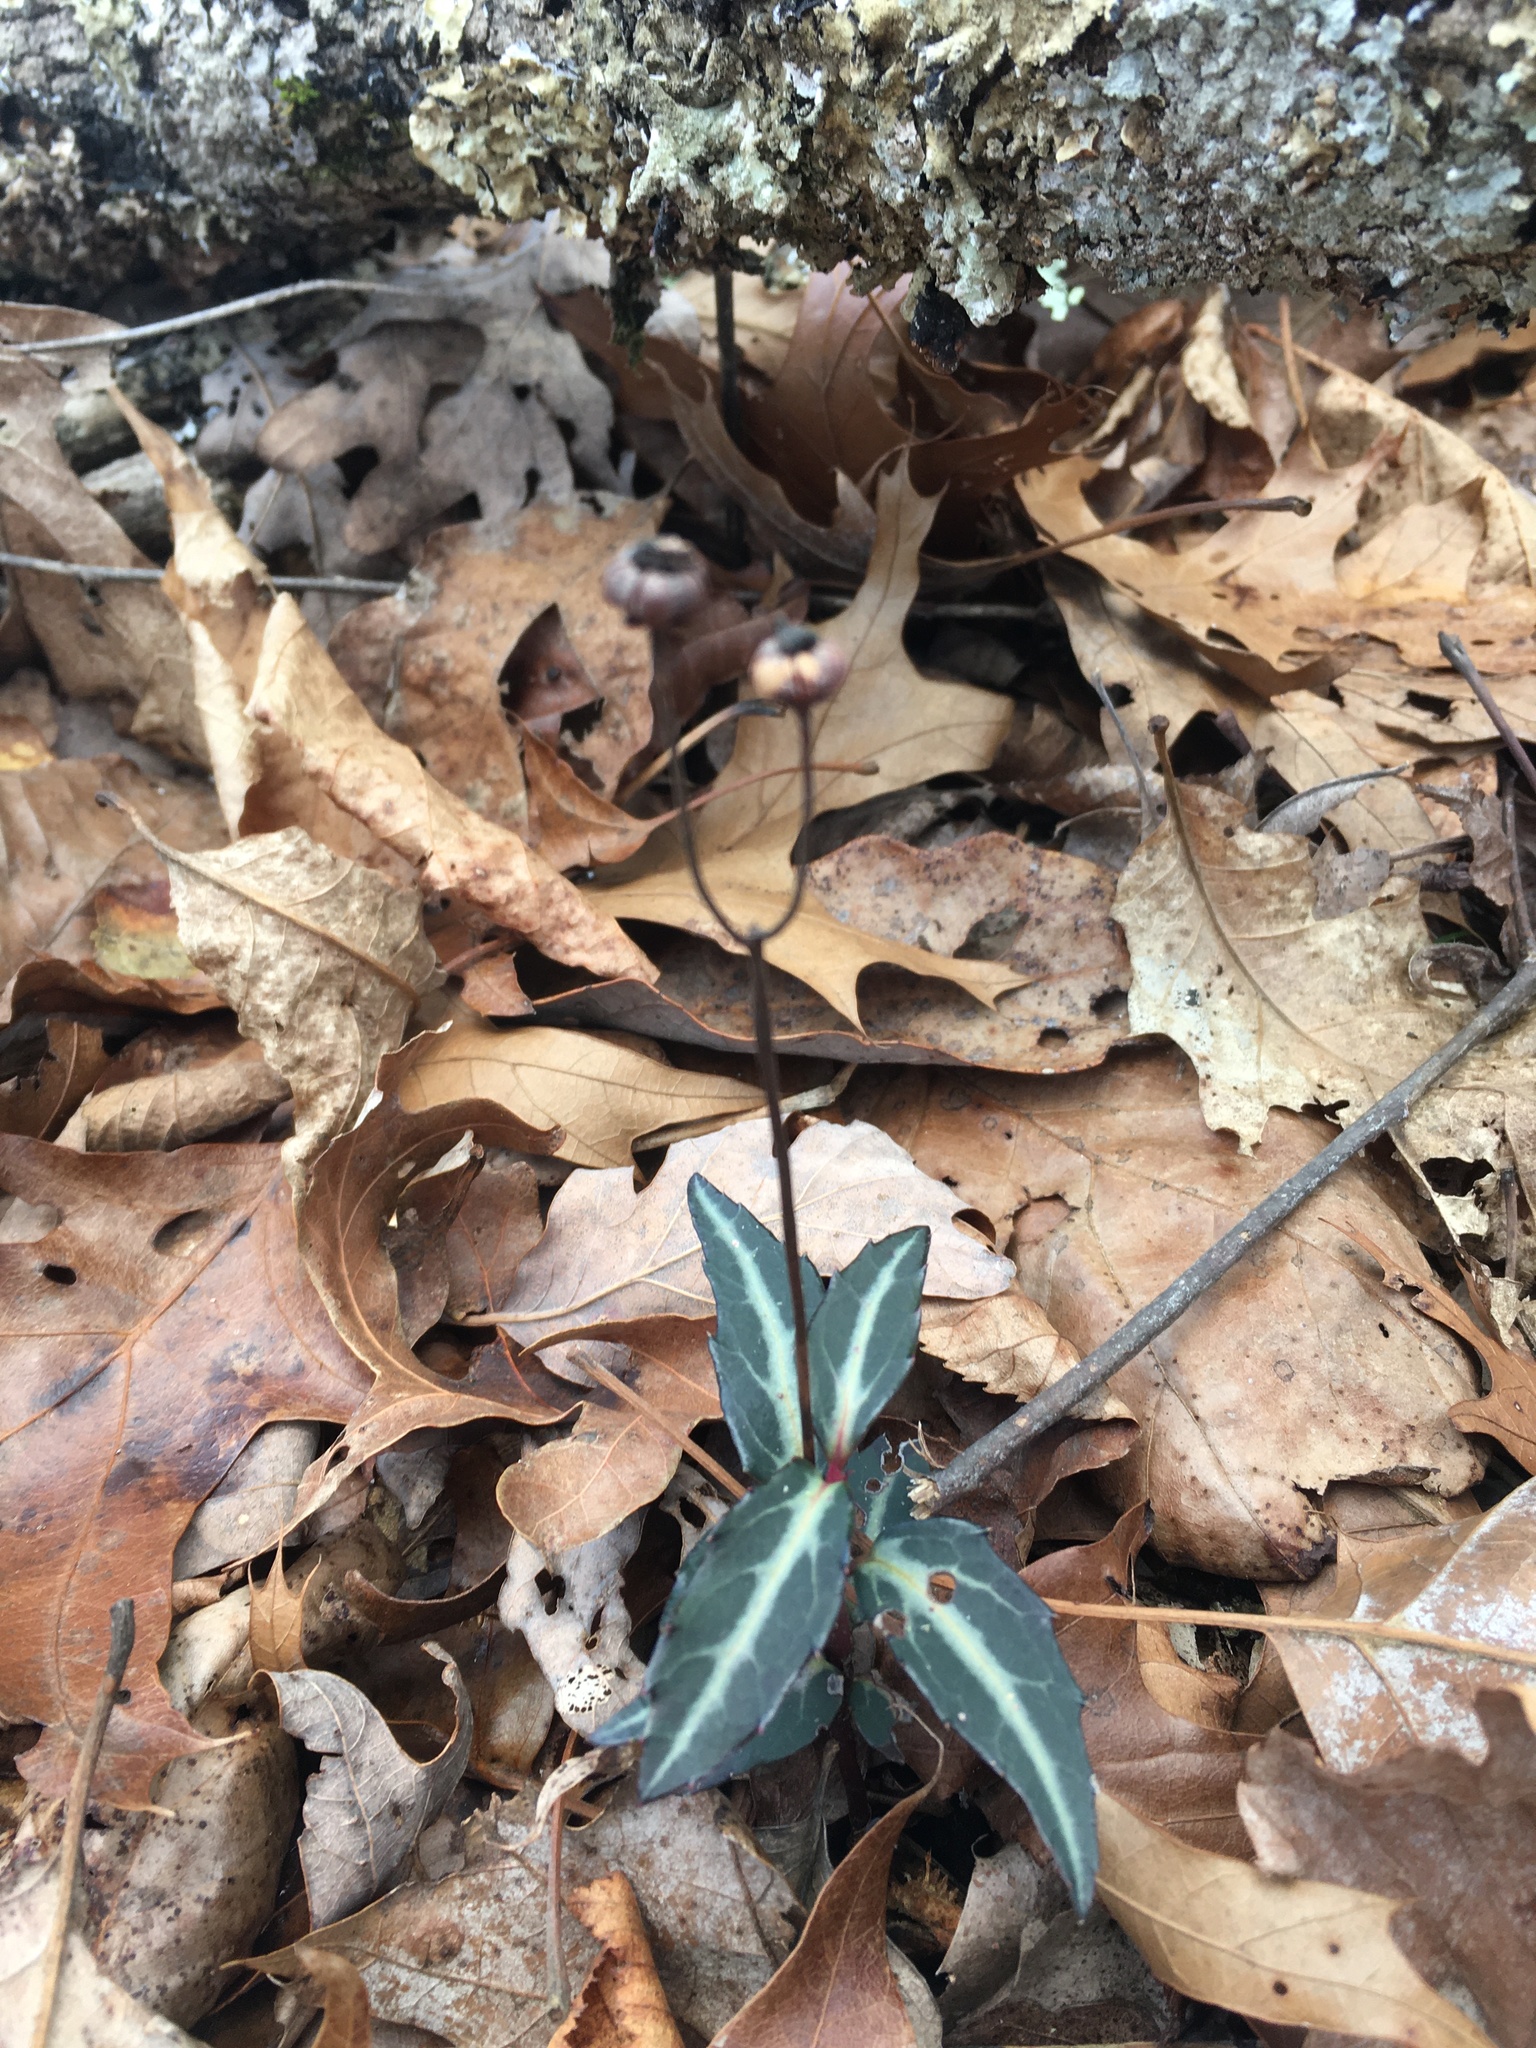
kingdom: Plantae
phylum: Tracheophyta
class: Magnoliopsida
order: Ericales
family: Ericaceae
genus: Chimaphila
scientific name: Chimaphila maculata
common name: Spotted pipsissewa
